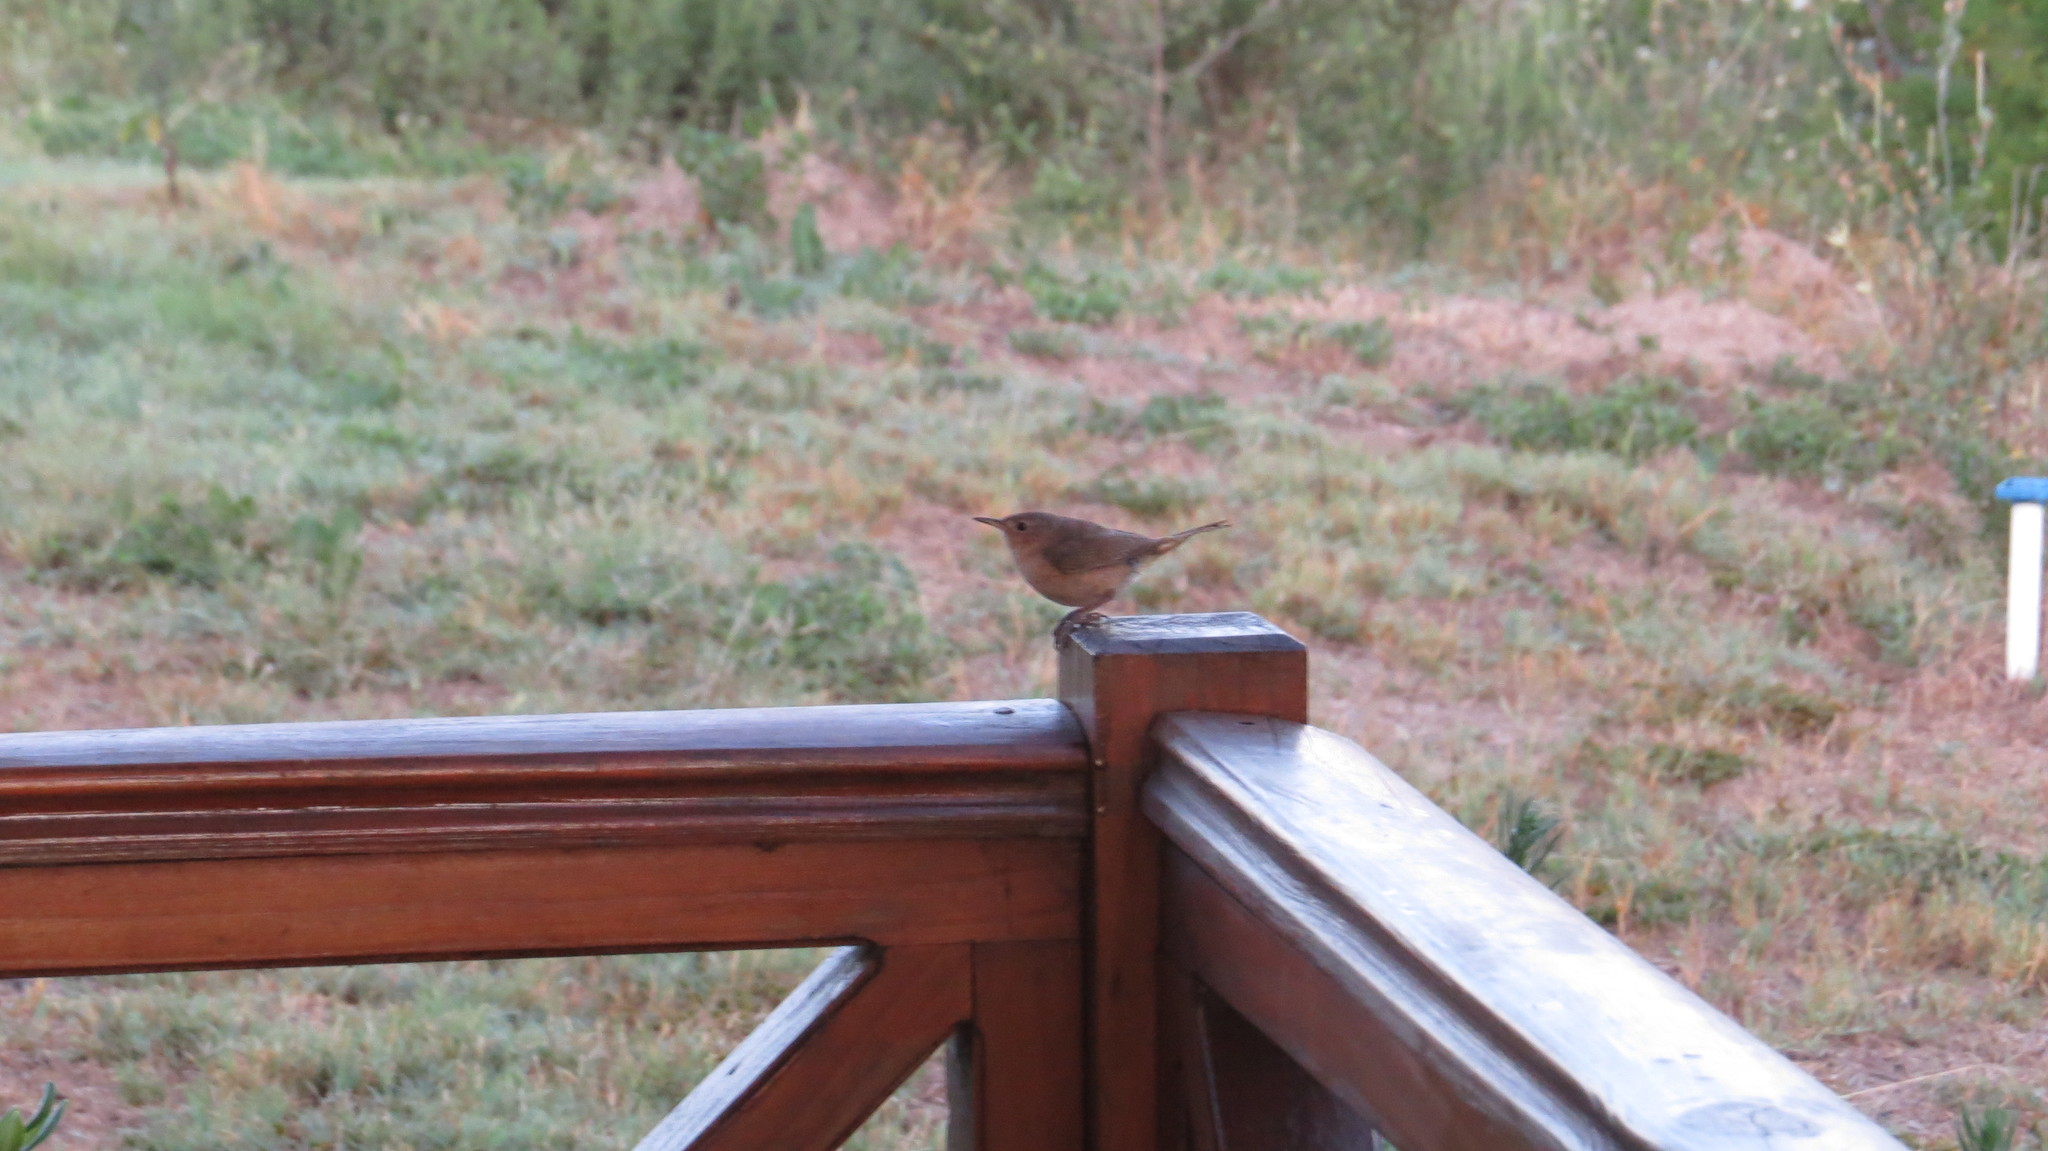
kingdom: Animalia
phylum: Chordata
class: Aves
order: Passeriformes
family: Troglodytidae
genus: Troglodytes
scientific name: Troglodytes aedon
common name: House wren
